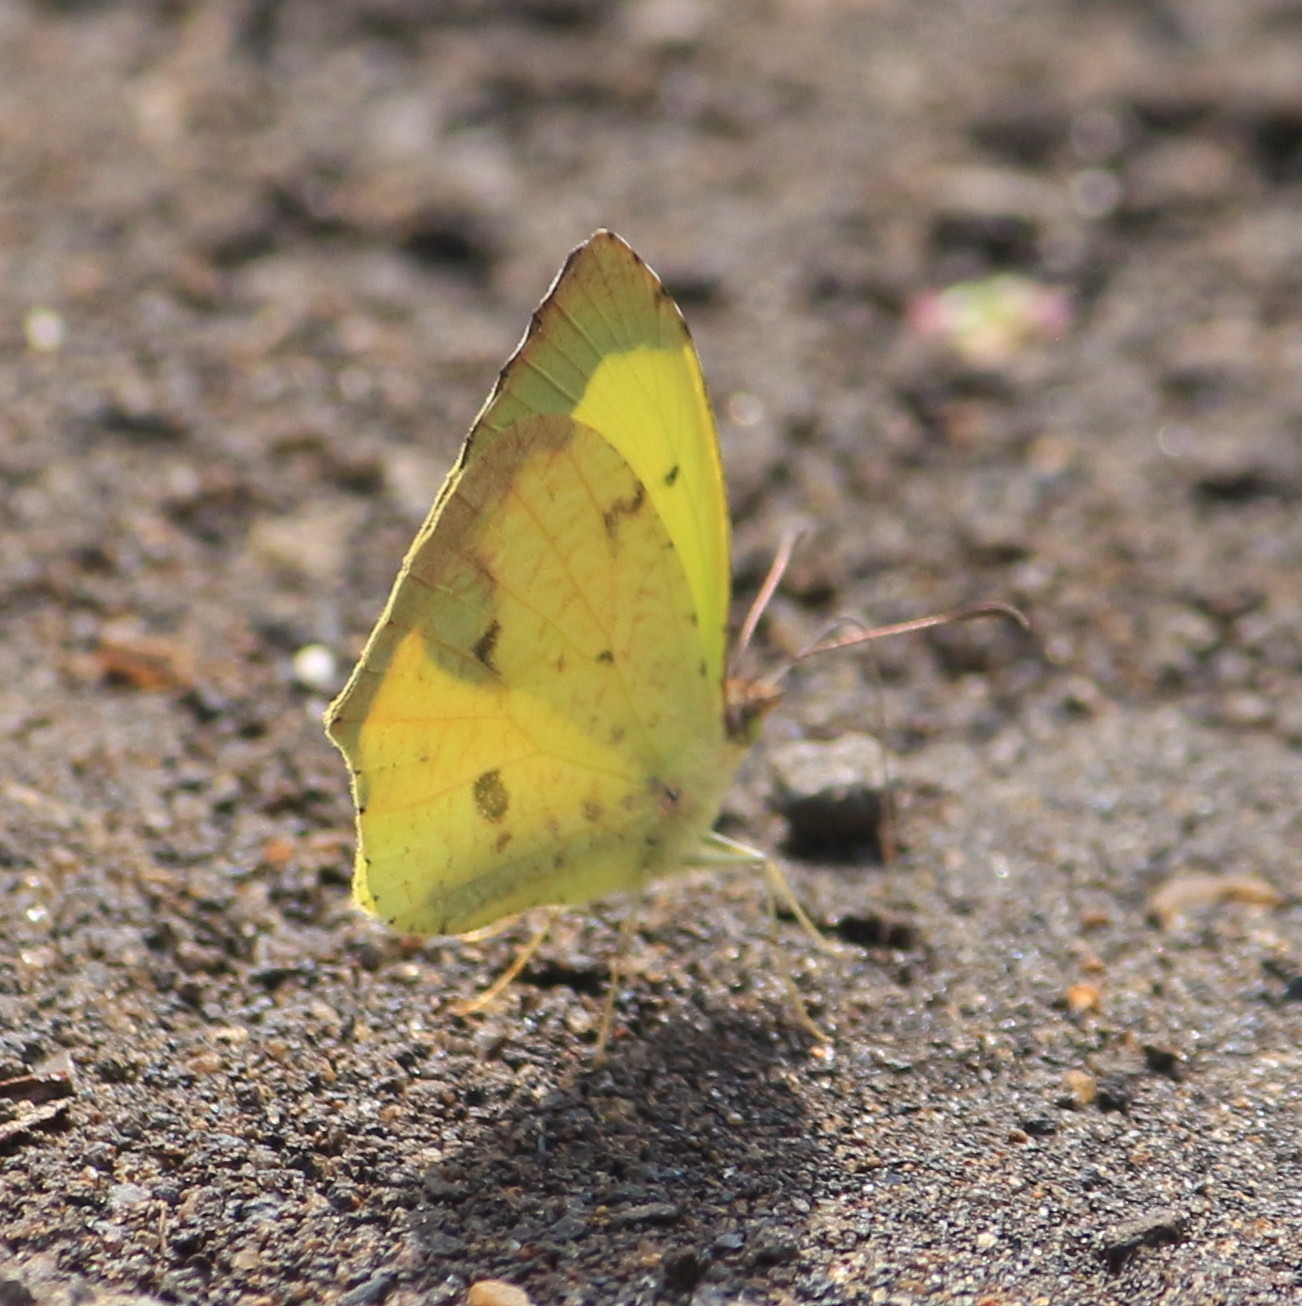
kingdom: Animalia
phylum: Arthropoda
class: Insecta
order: Lepidoptera
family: Pieridae
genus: Abaeis
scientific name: Abaeis salome
